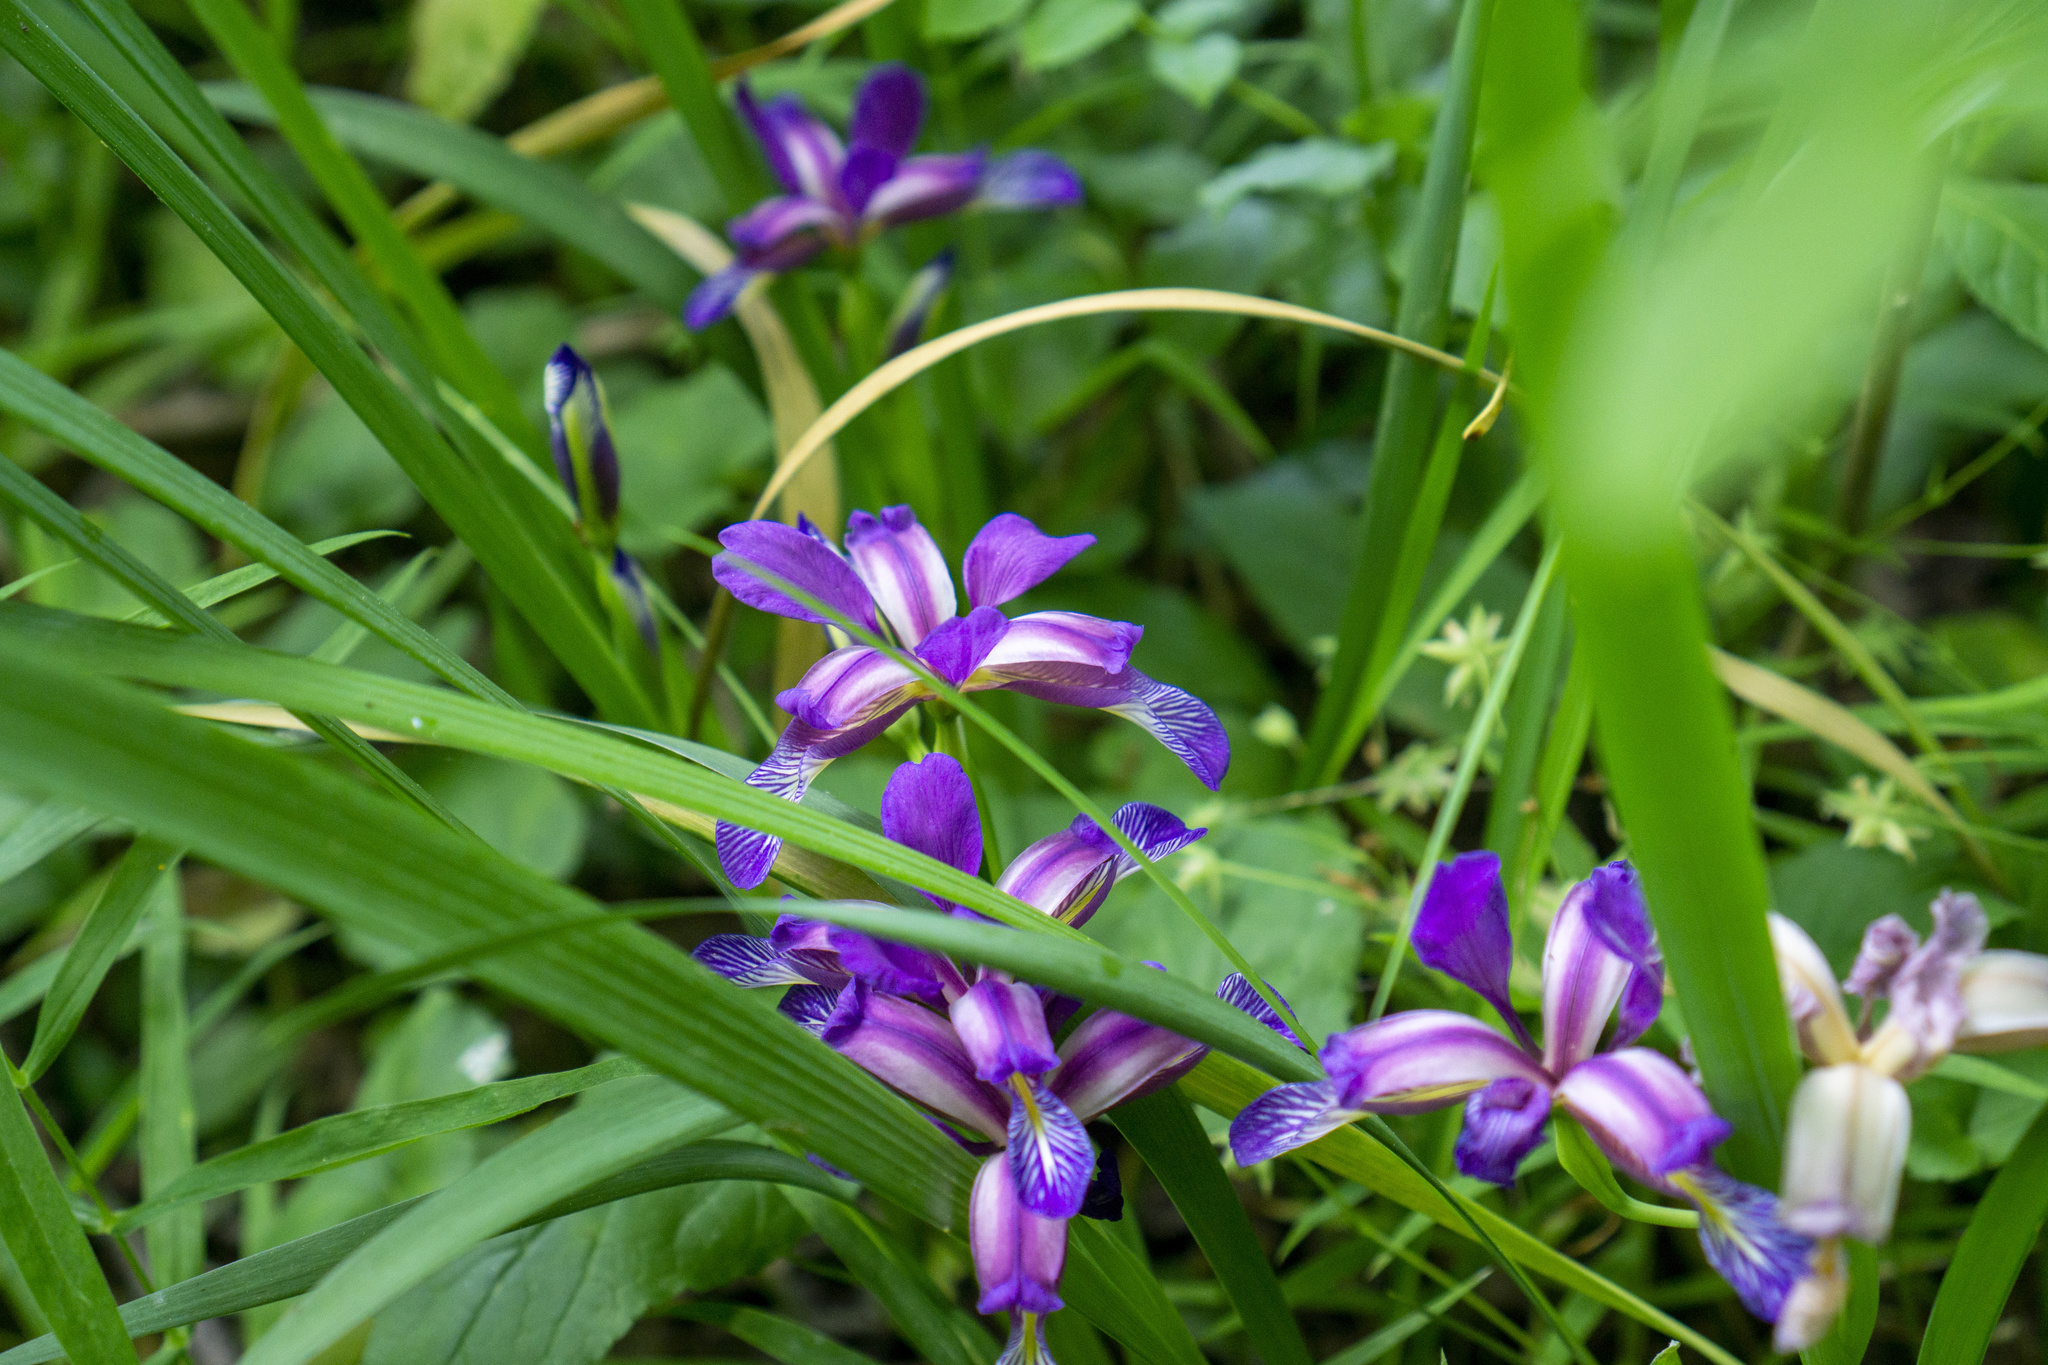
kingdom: Plantae
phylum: Tracheophyta
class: Liliopsida
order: Asparagales
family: Iridaceae
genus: Iris
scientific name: Iris graminea
